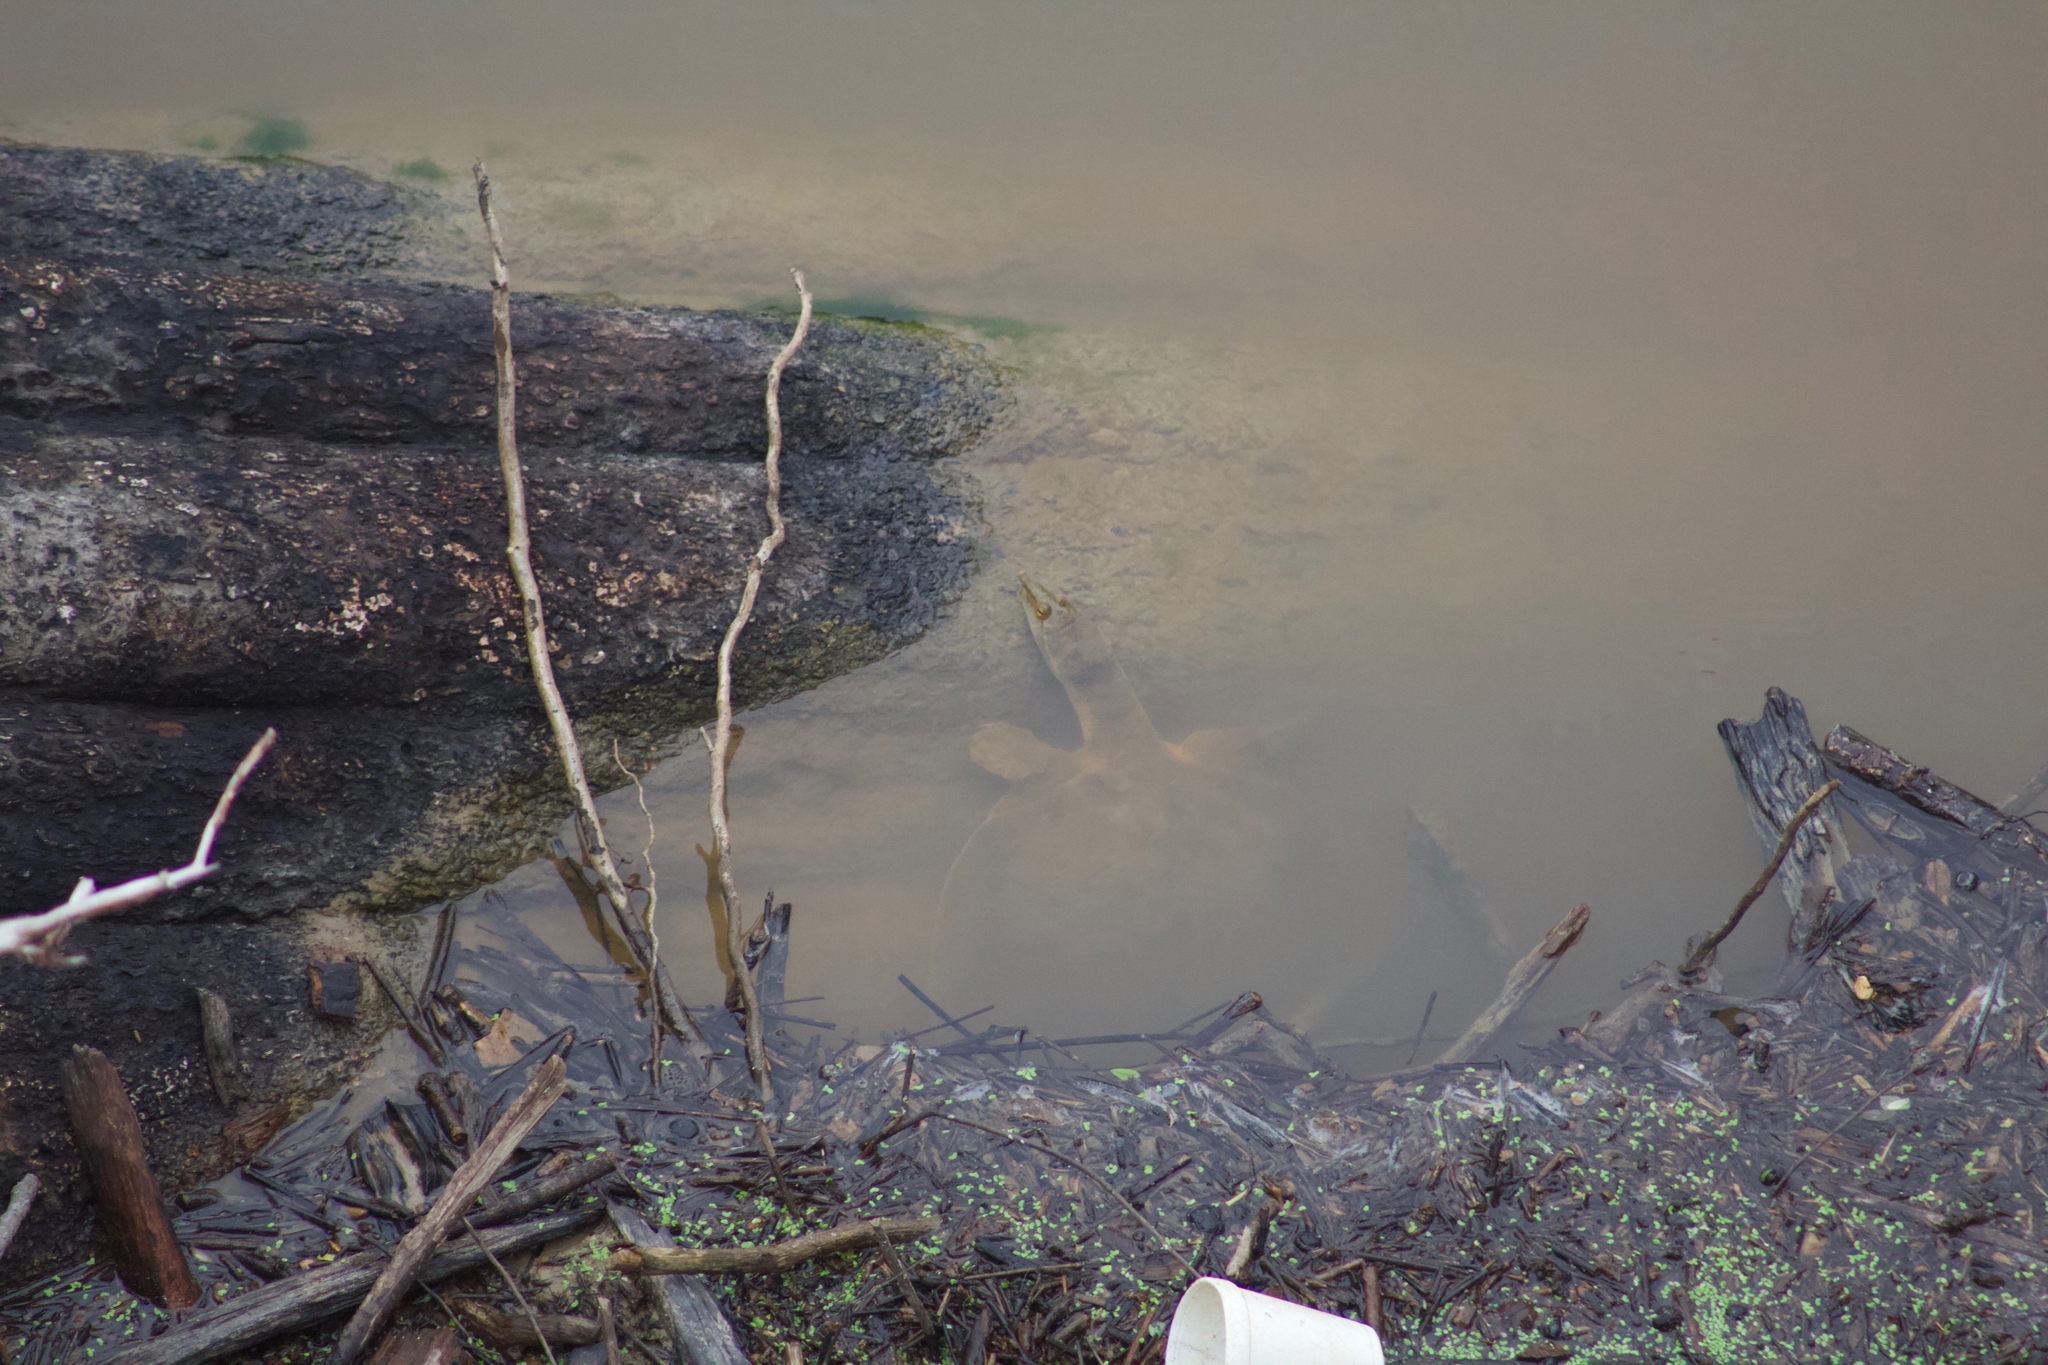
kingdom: Animalia
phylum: Chordata
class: Testudines
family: Trionychidae
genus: Apalone
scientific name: Apalone mutica
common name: Smooth softshell turtle
